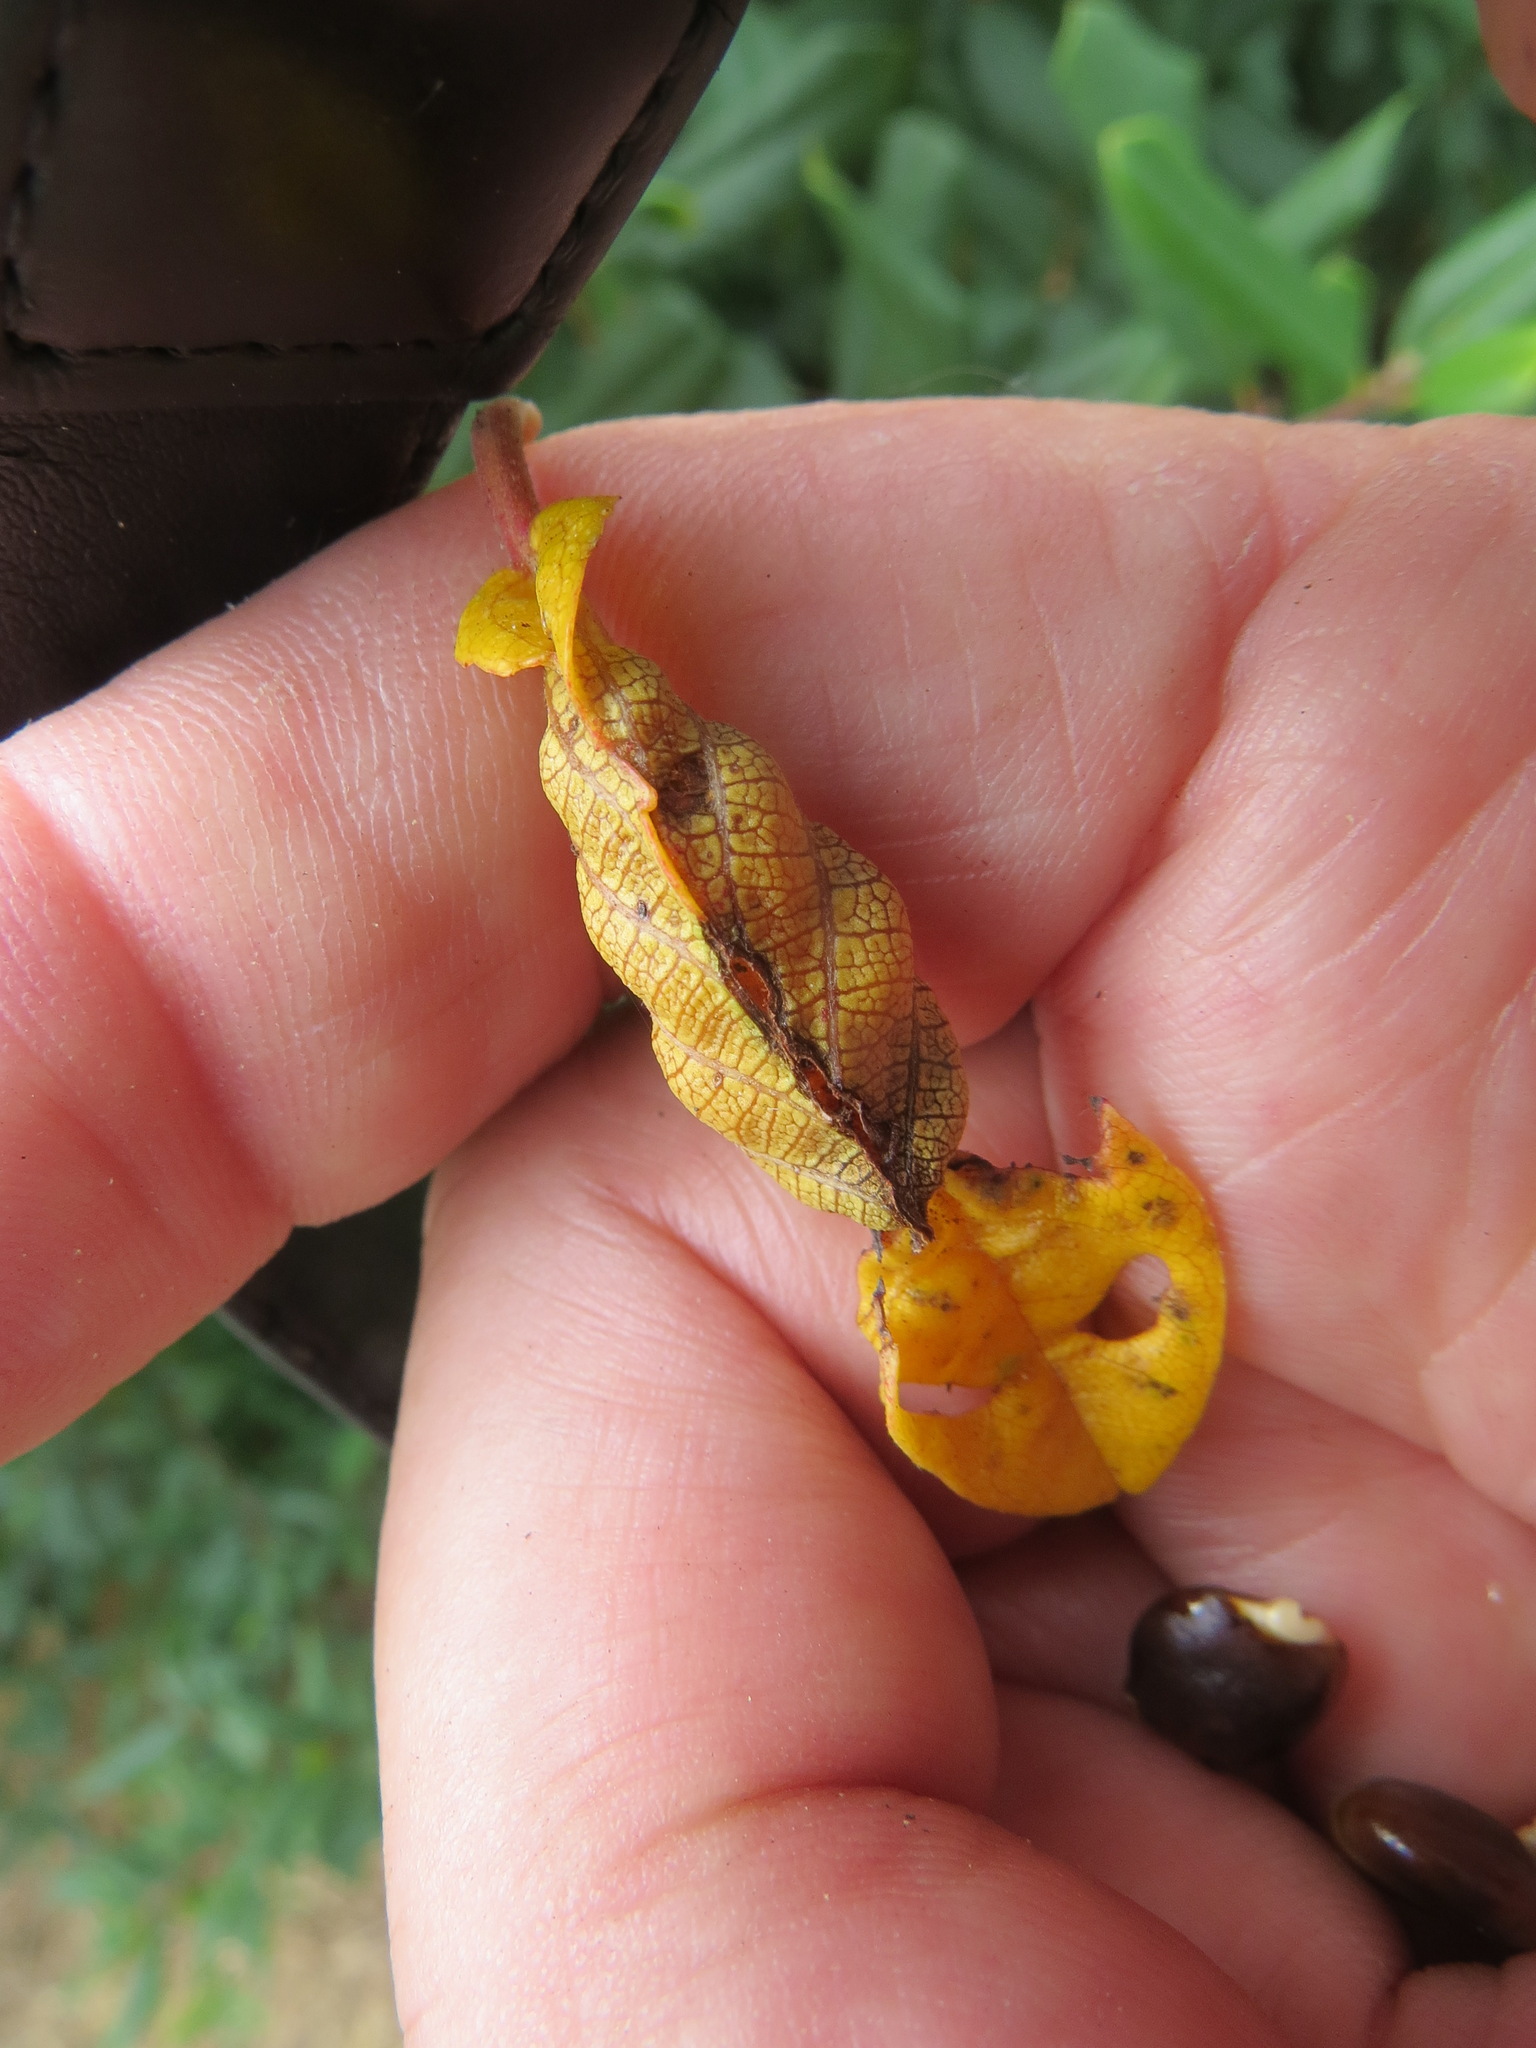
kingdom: Animalia
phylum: Arthropoda
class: Insecta
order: Lepidoptera
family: Cosmopterigidae
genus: Sorhagenia
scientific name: Sorhagenia nimbosus
